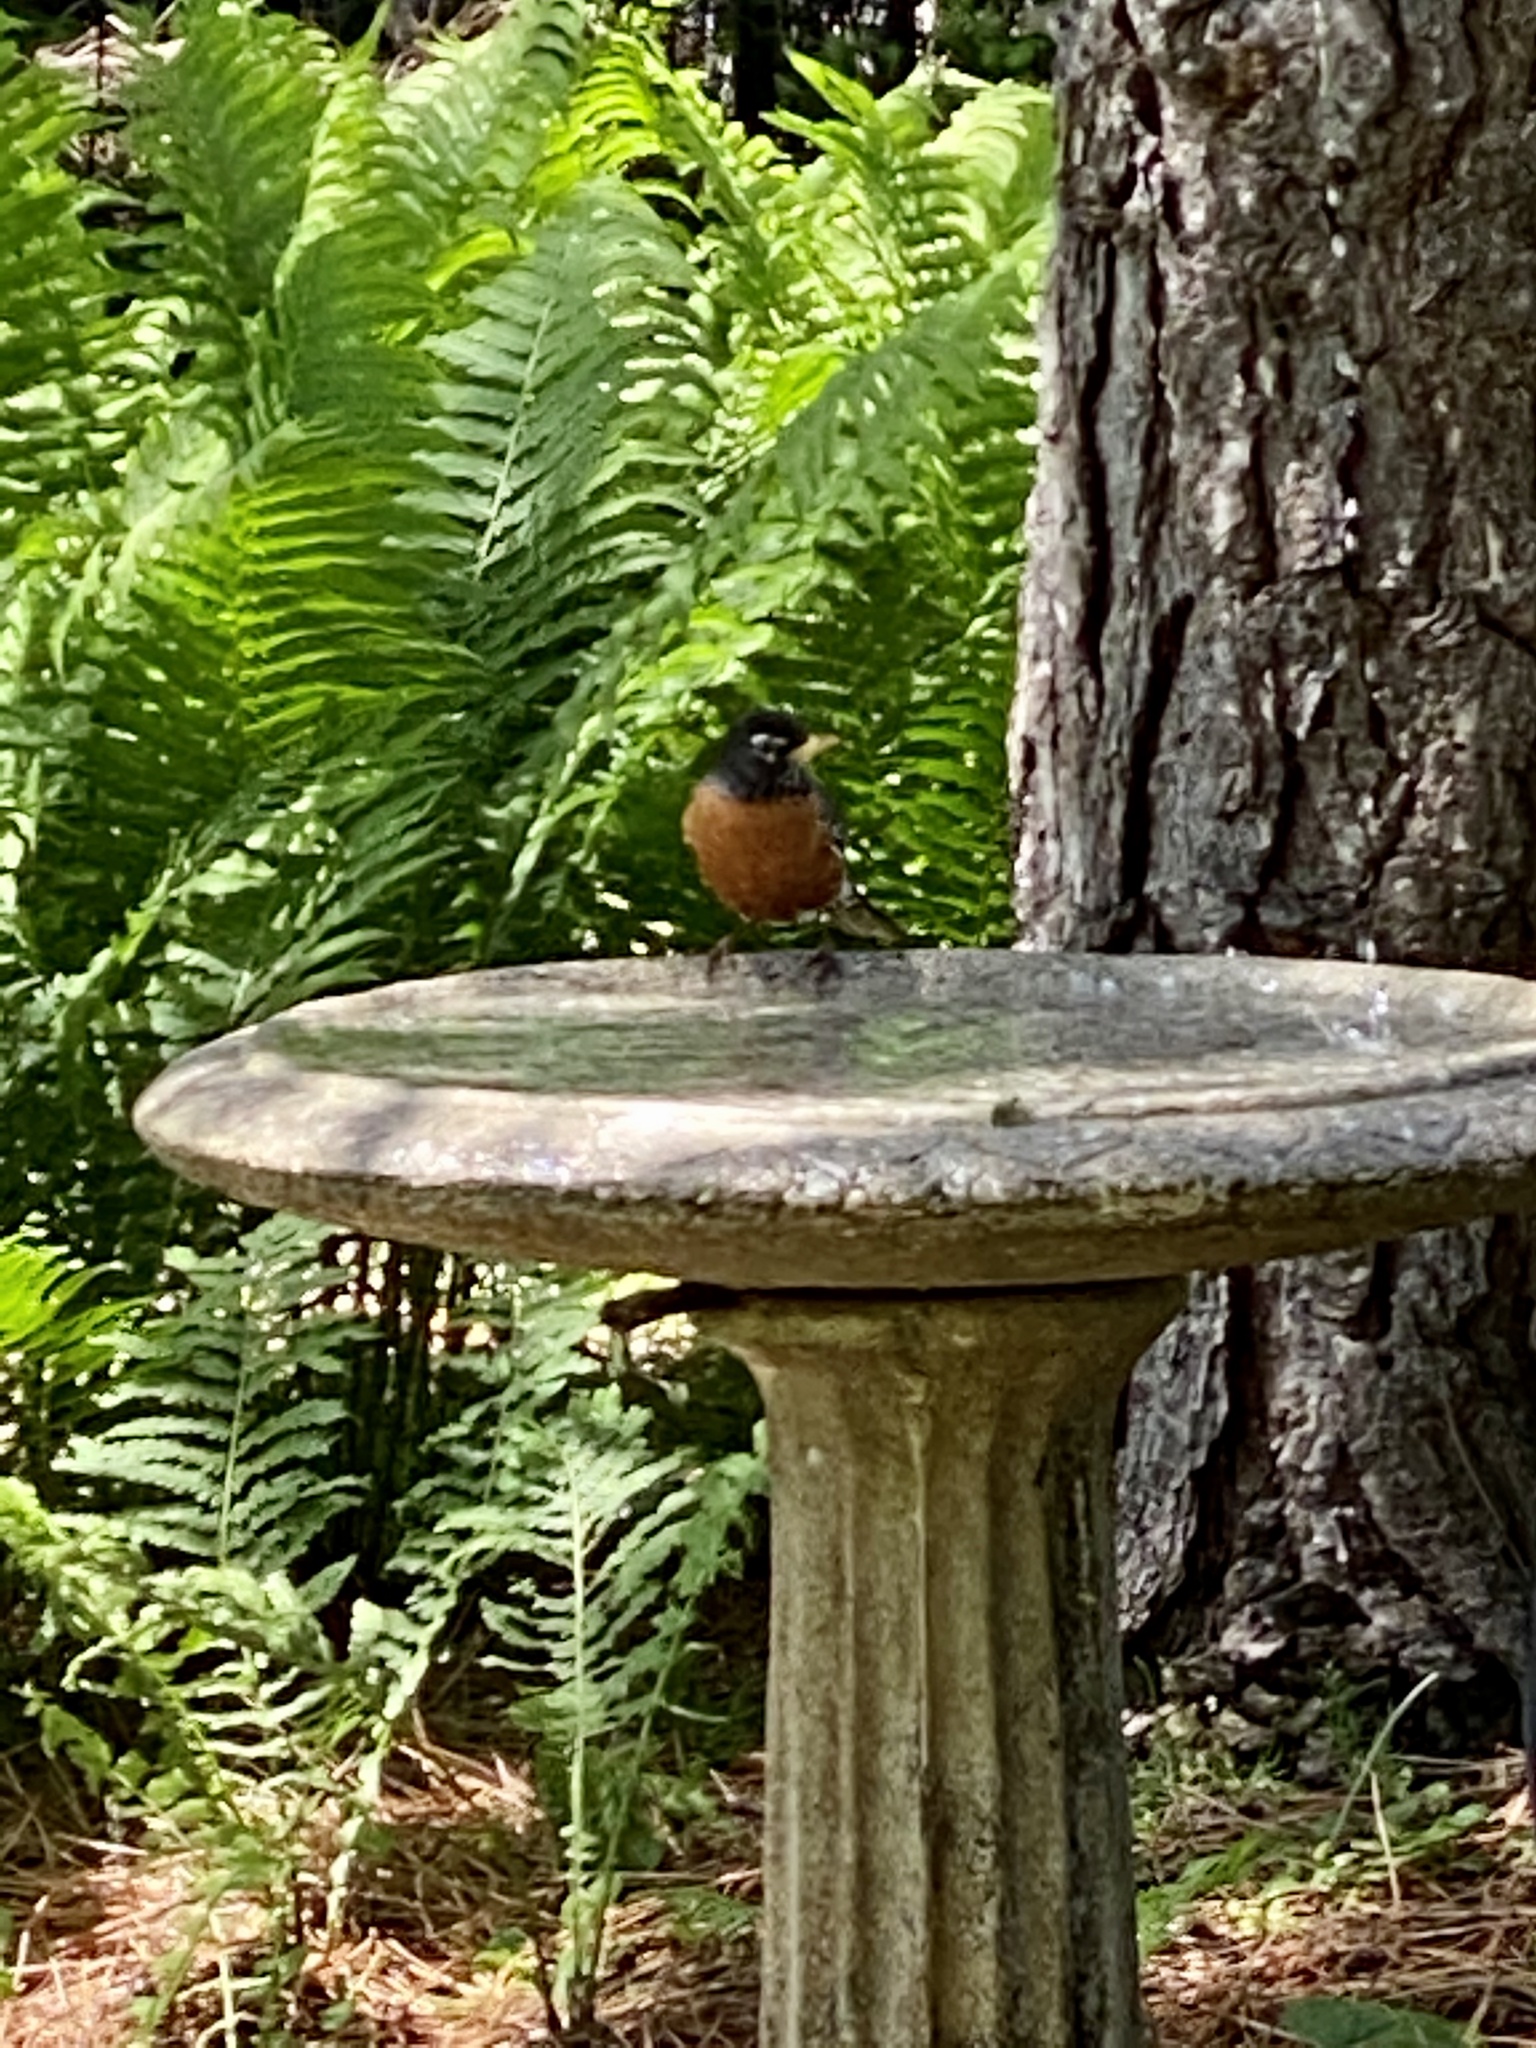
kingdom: Animalia
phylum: Chordata
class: Aves
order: Passeriformes
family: Turdidae
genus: Turdus
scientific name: Turdus migratorius
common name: American robin
